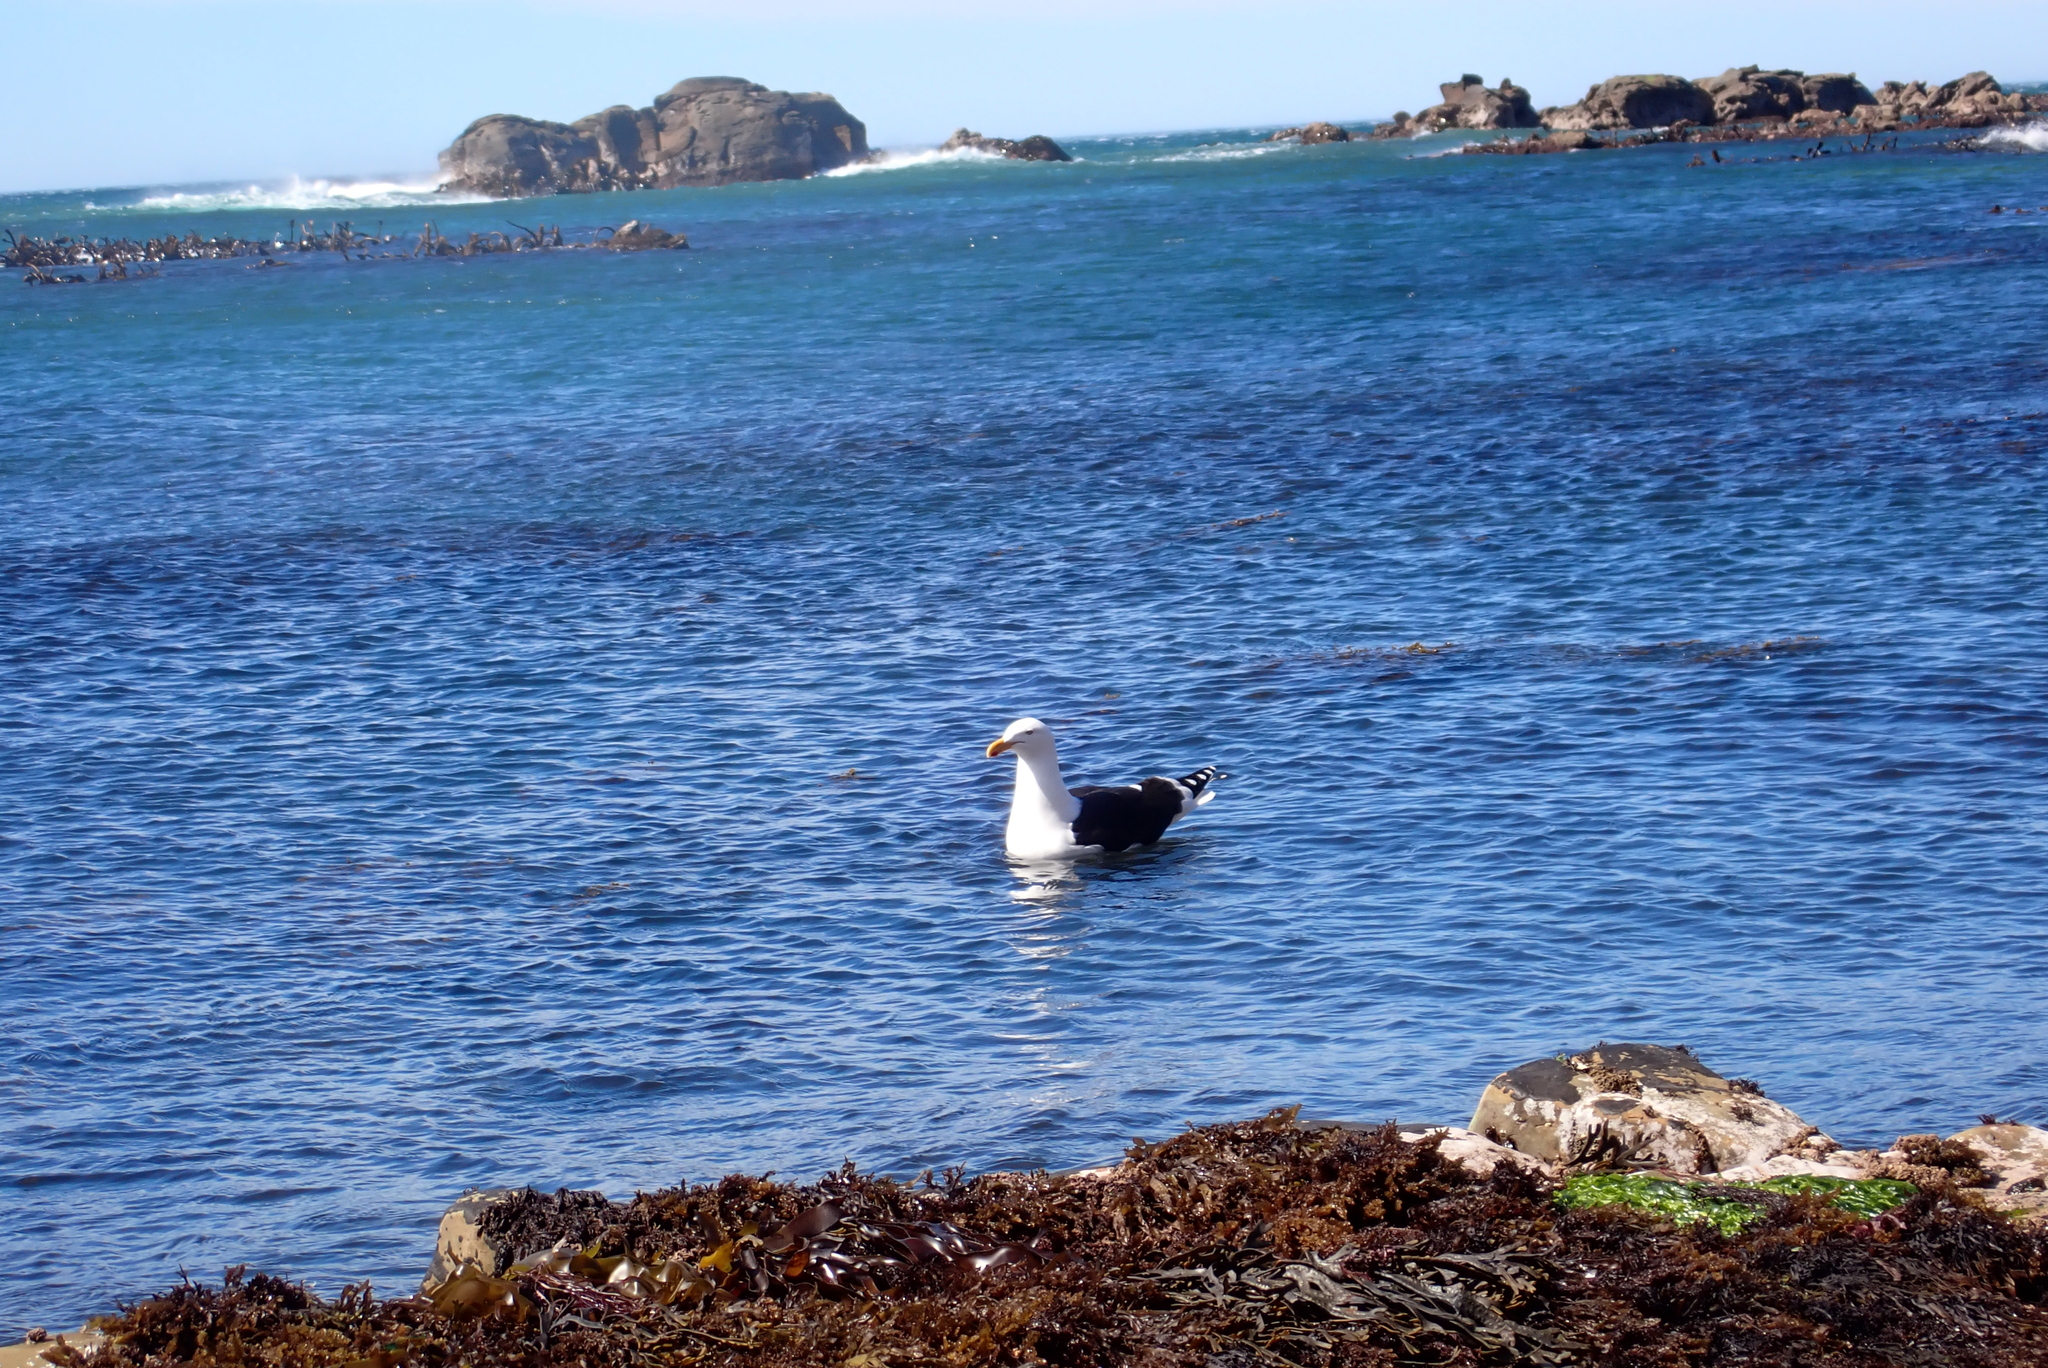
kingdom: Animalia
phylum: Chordata
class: Aves
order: Charadriiformes
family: Laridae
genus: Larus
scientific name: Larus dominicanus
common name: Kelp gull
